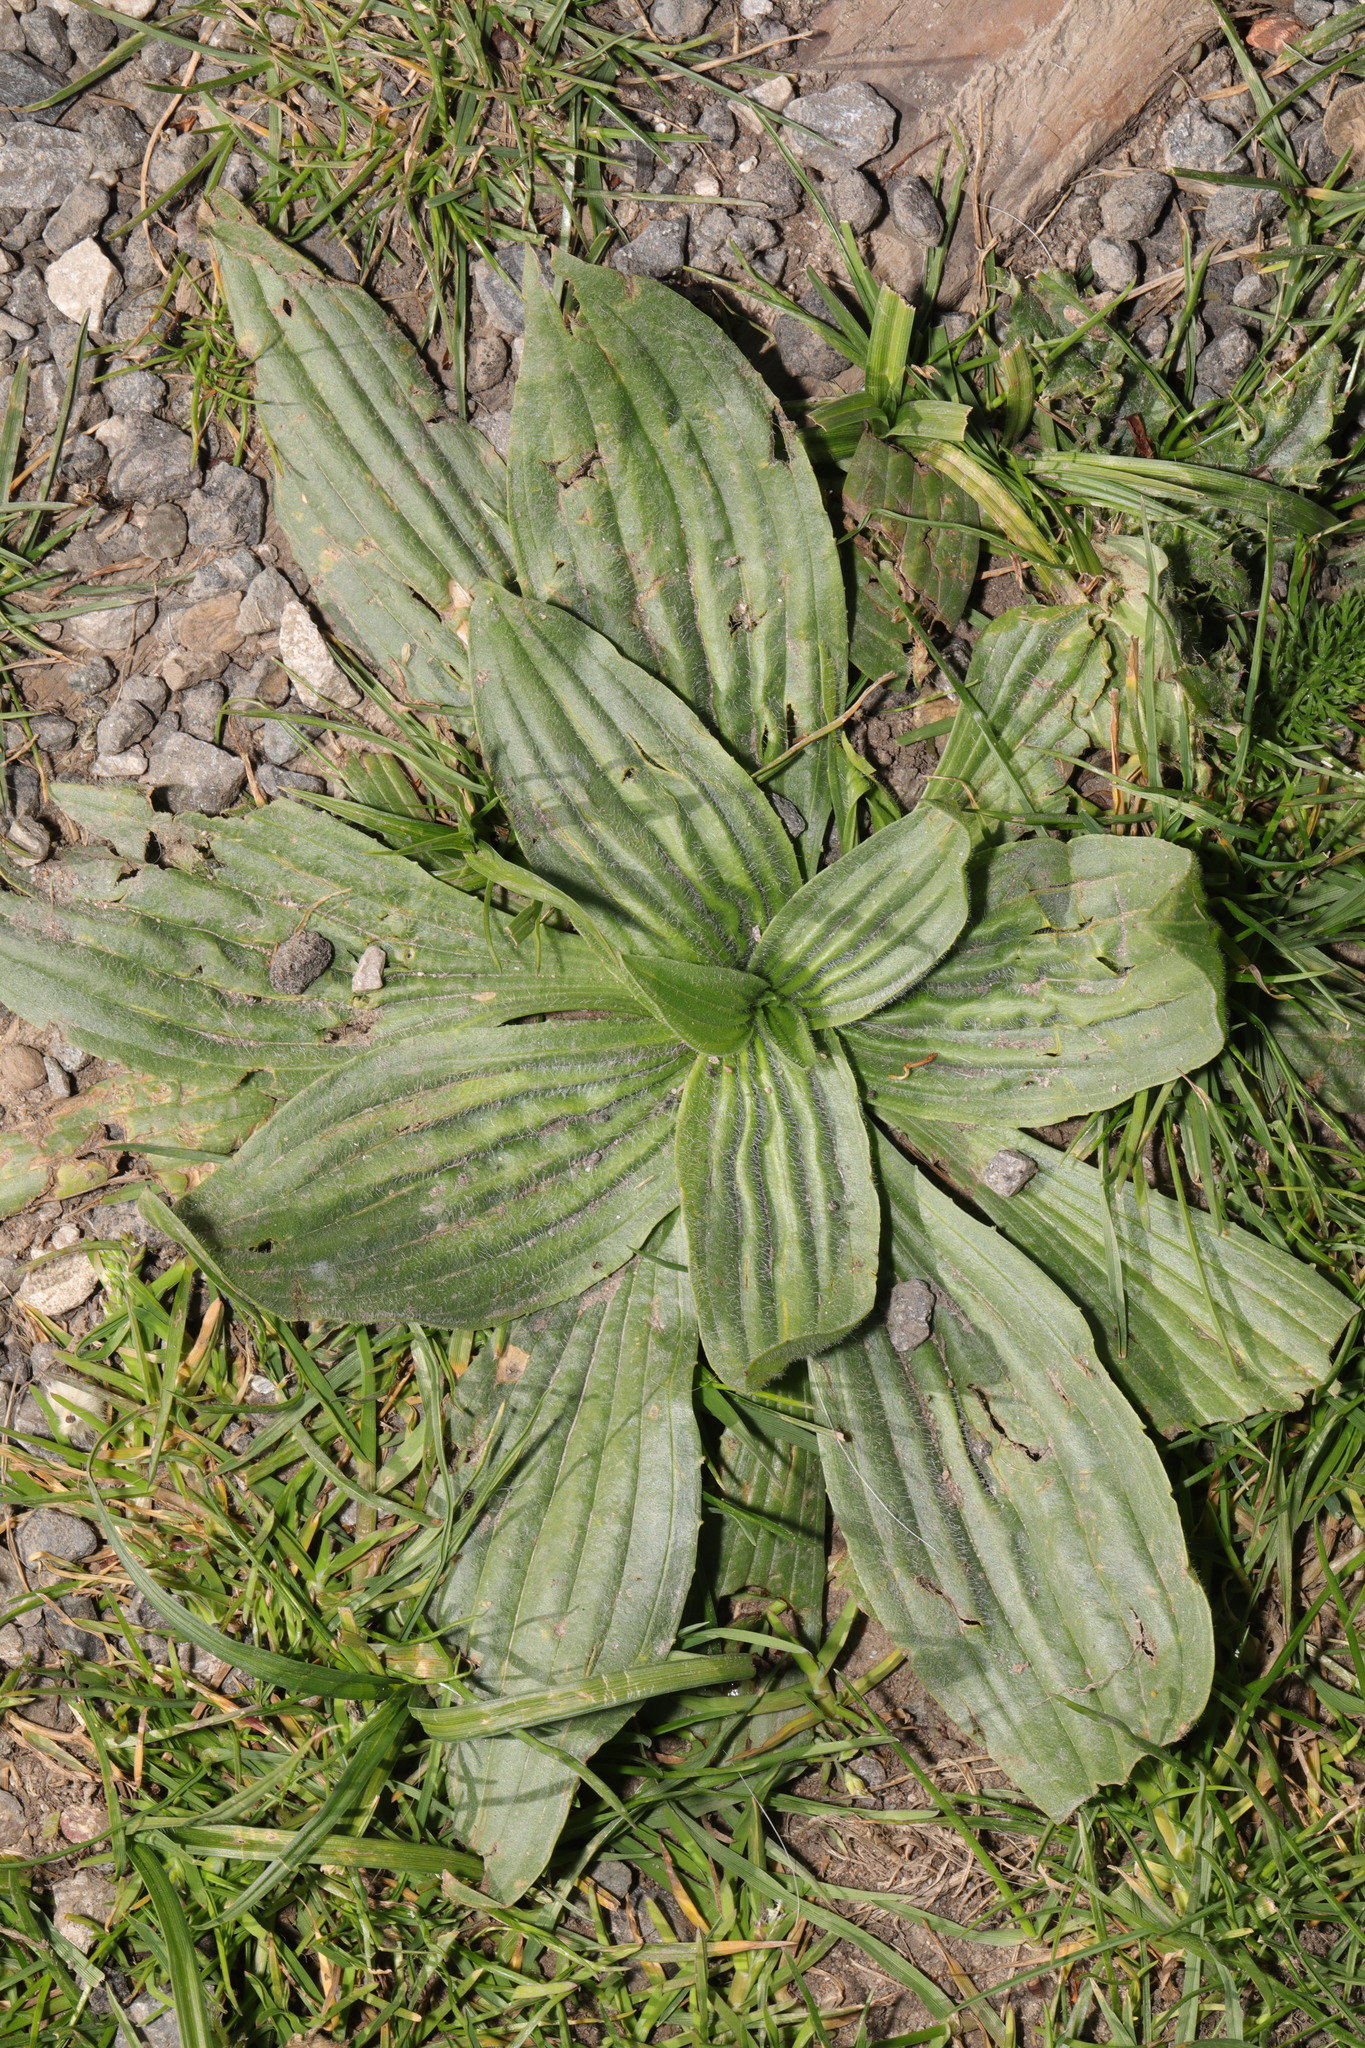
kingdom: Plantae
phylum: Tracheophyta
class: Magnoliopsida
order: Lamiales
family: Plantaginaceae
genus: Plantago
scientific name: Plantago media
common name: Hoary plantain
